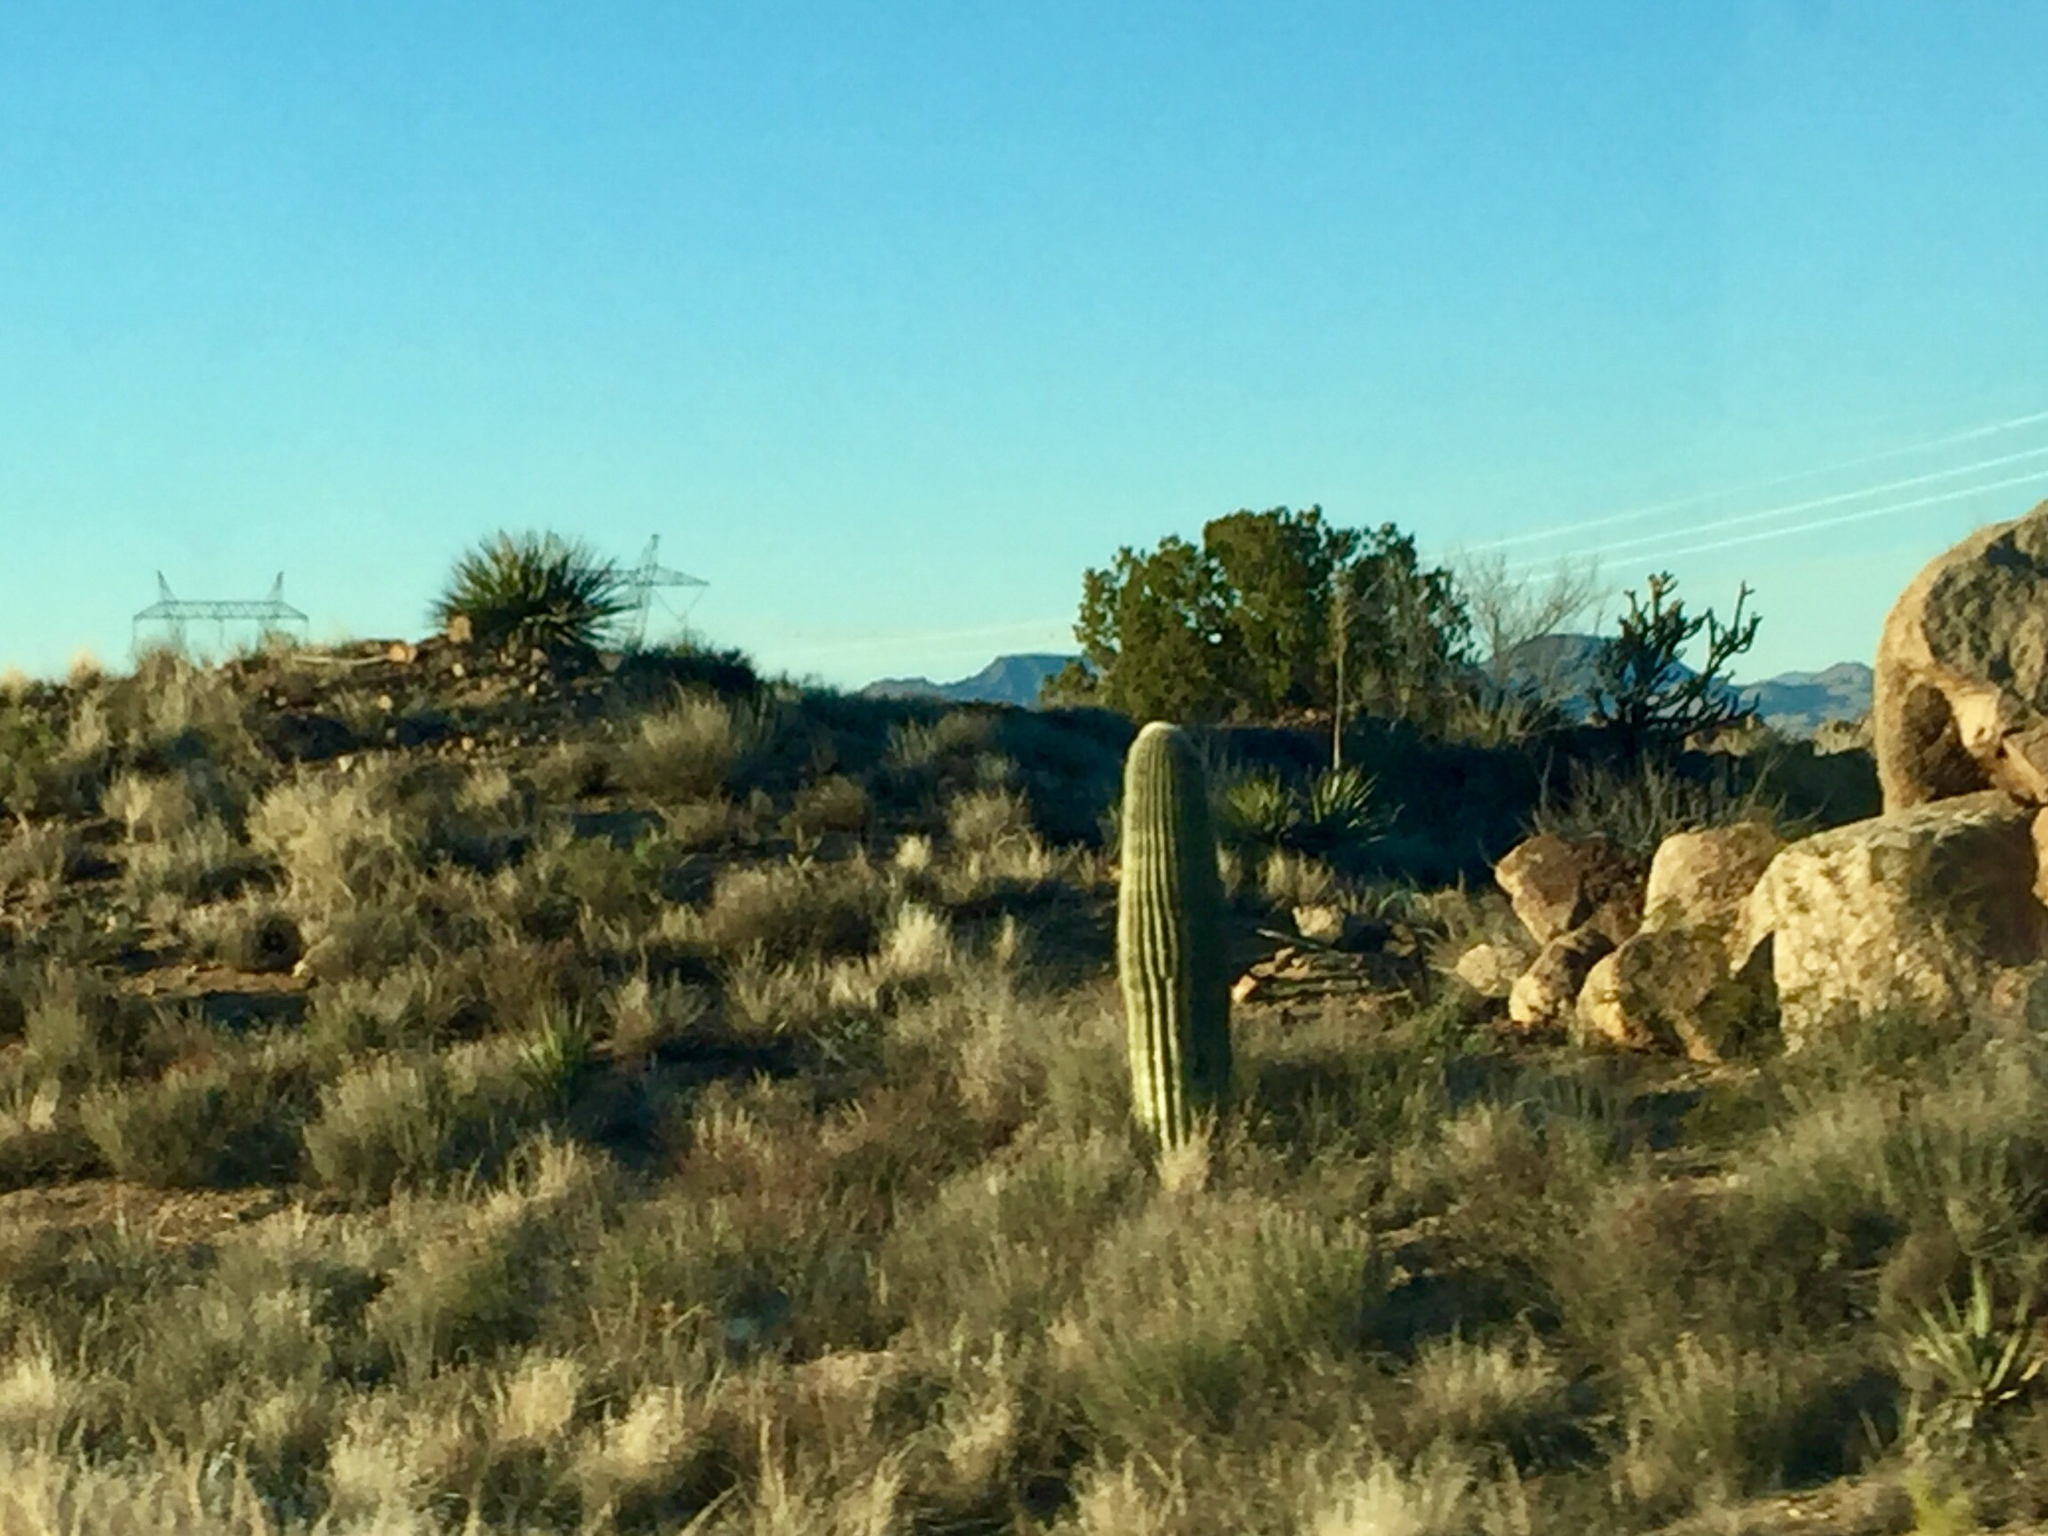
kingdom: Plantae
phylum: Tracheophyta
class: Magnoliopsida
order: Caryophyllales
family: Cactaceae
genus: Carnegiea
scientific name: Carnegiea gigantea
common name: Saguaro
